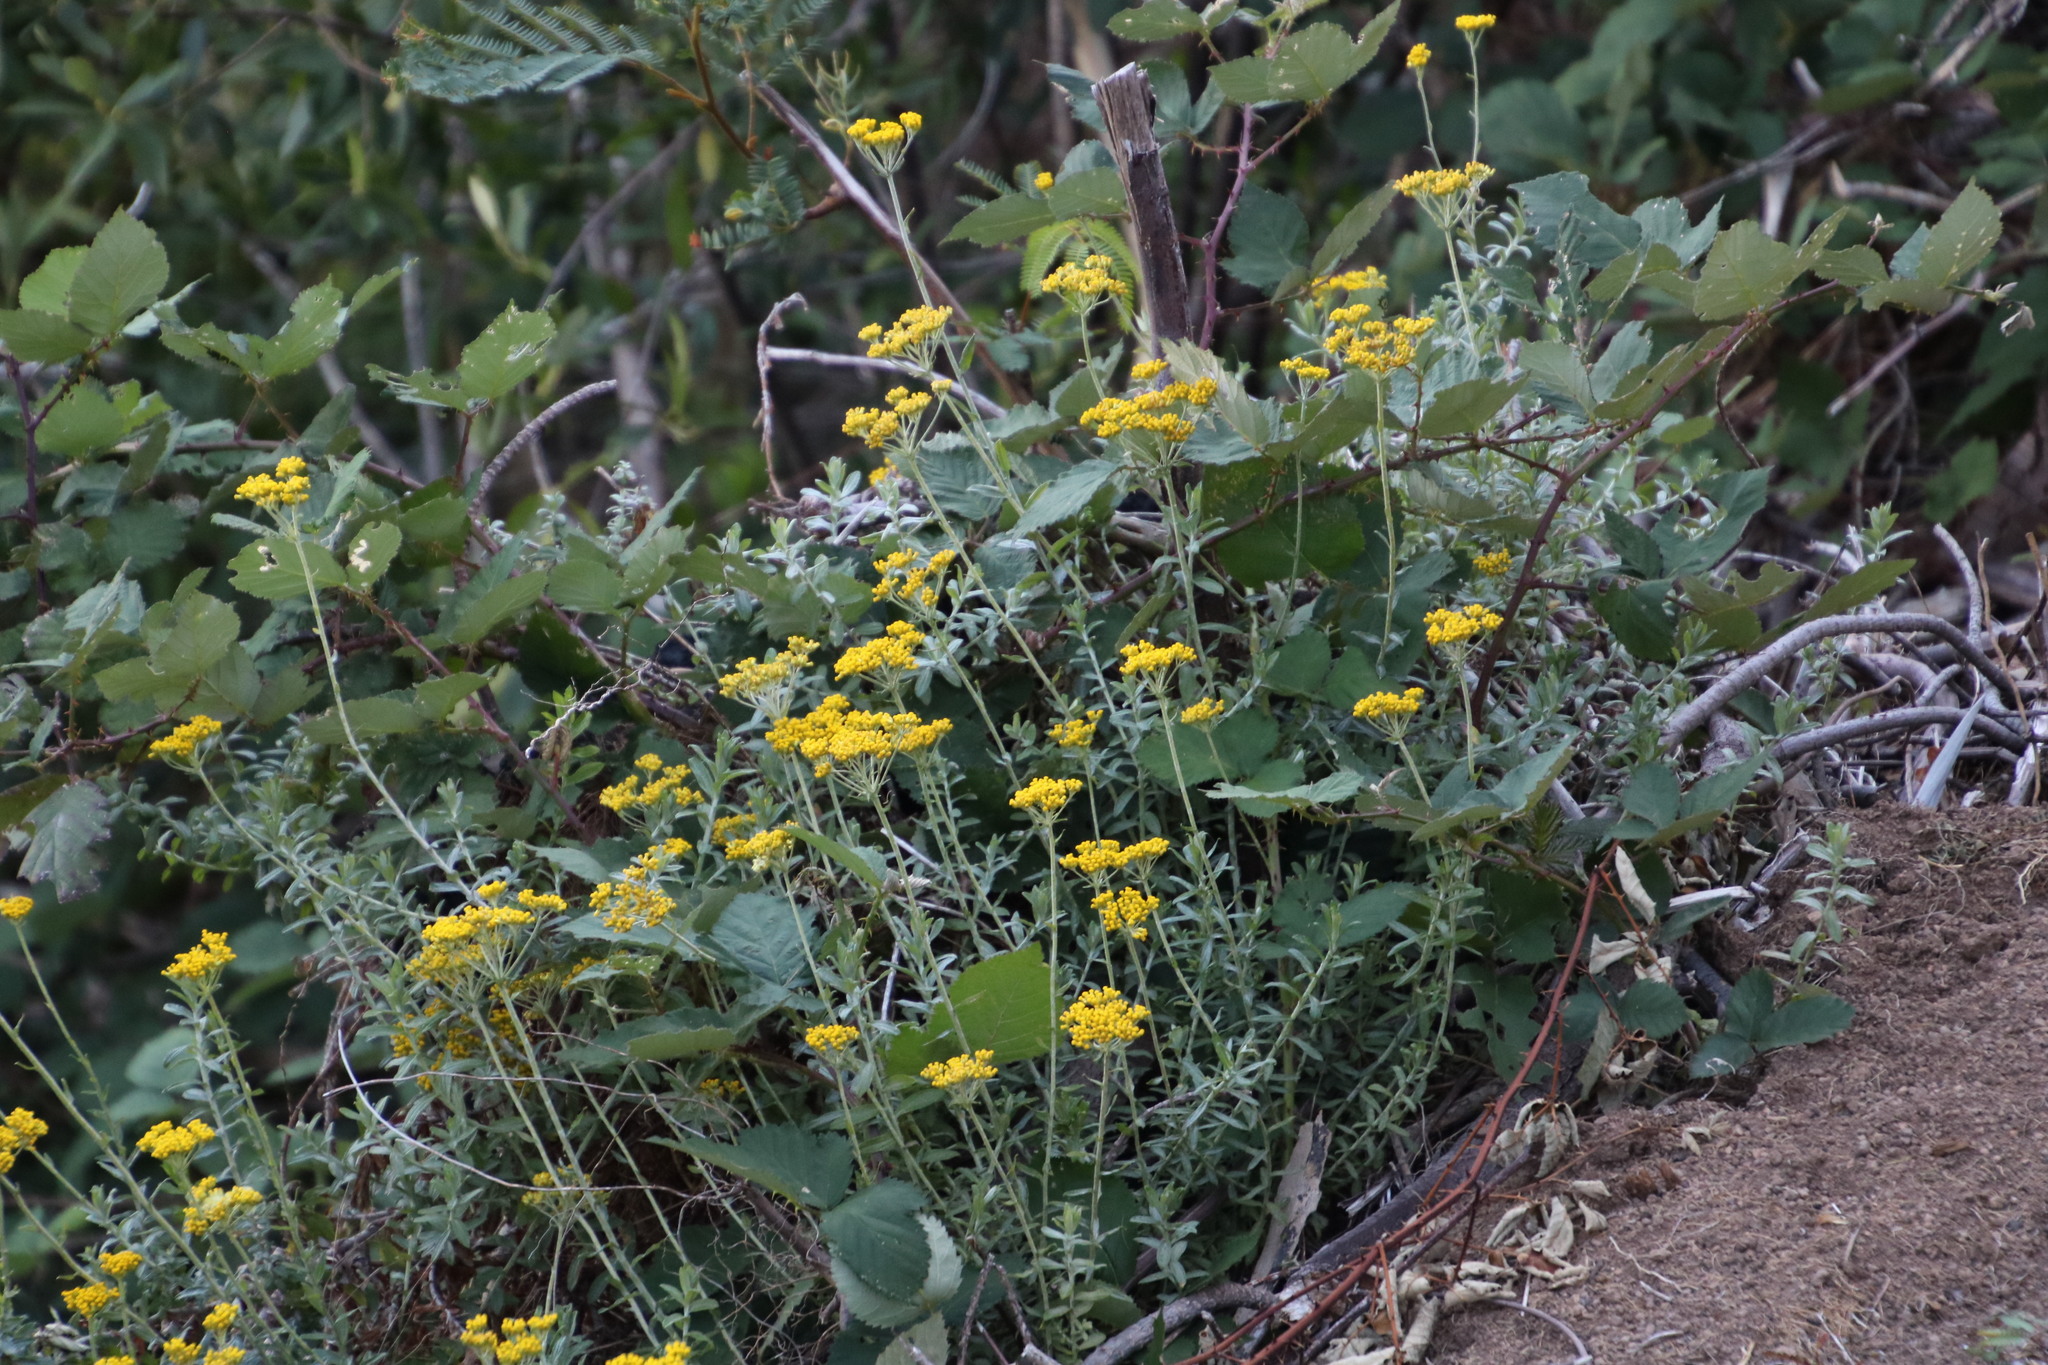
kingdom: Plantae
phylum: Tracheophyta
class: Magnoliopsida
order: Asterales
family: Asteraceae
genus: Helichrysum
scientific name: Helichrysum cymosum
